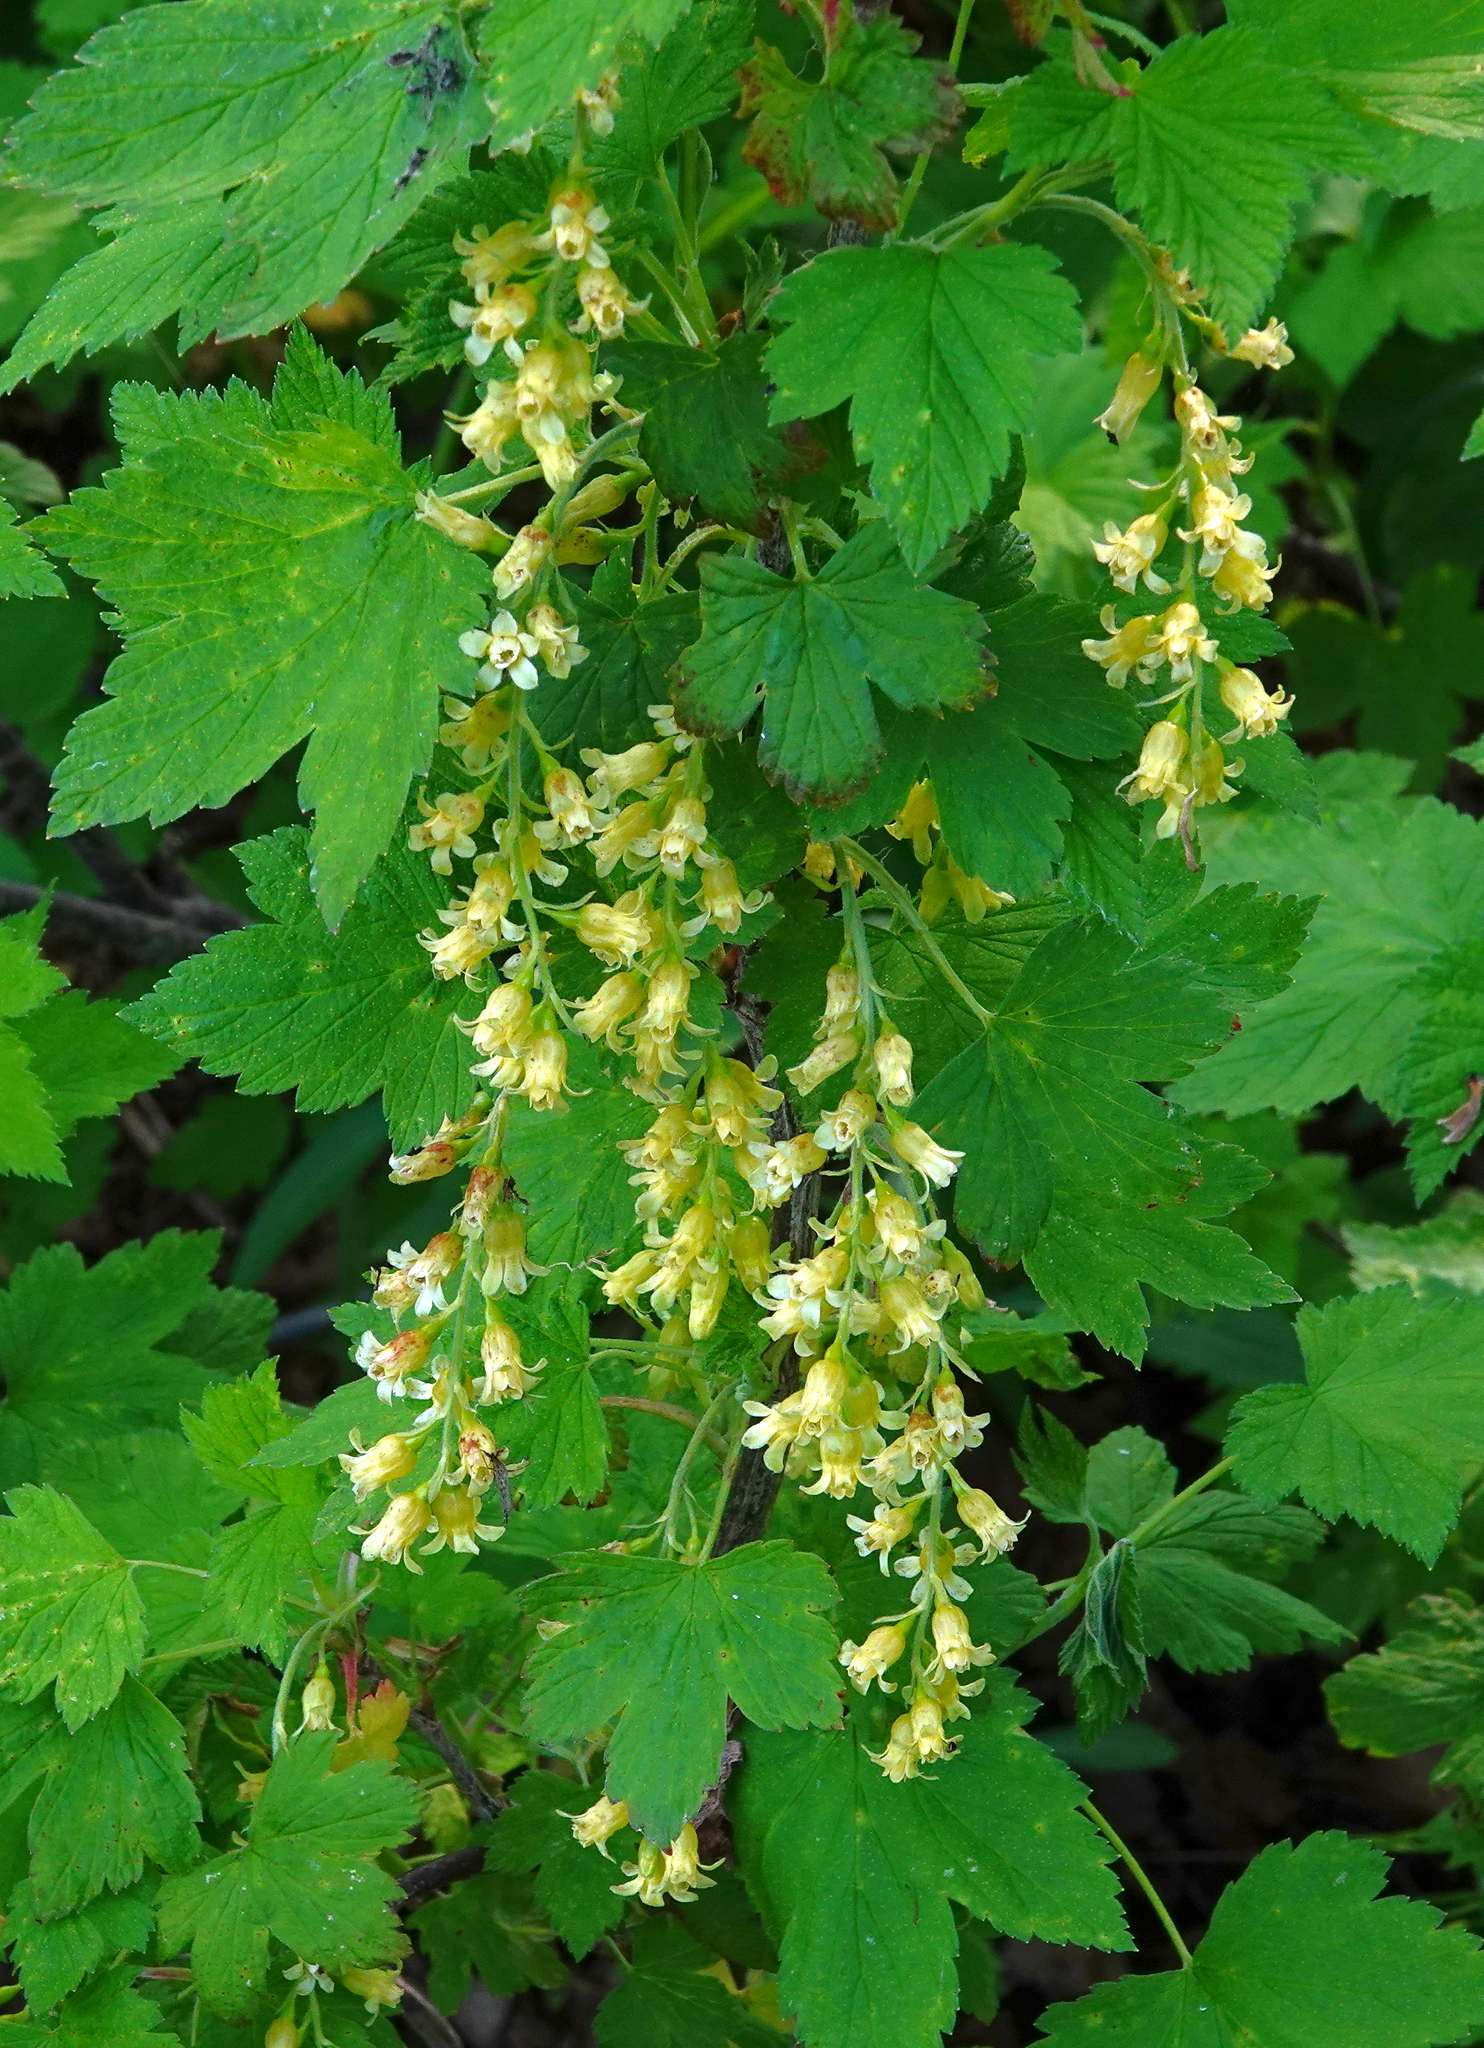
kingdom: Plantae
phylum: Tracheophyta
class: Magnoliopsida
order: Saxifragales
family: Grossulariaceae
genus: Ribes
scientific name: Ribes americanum
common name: American black currant
